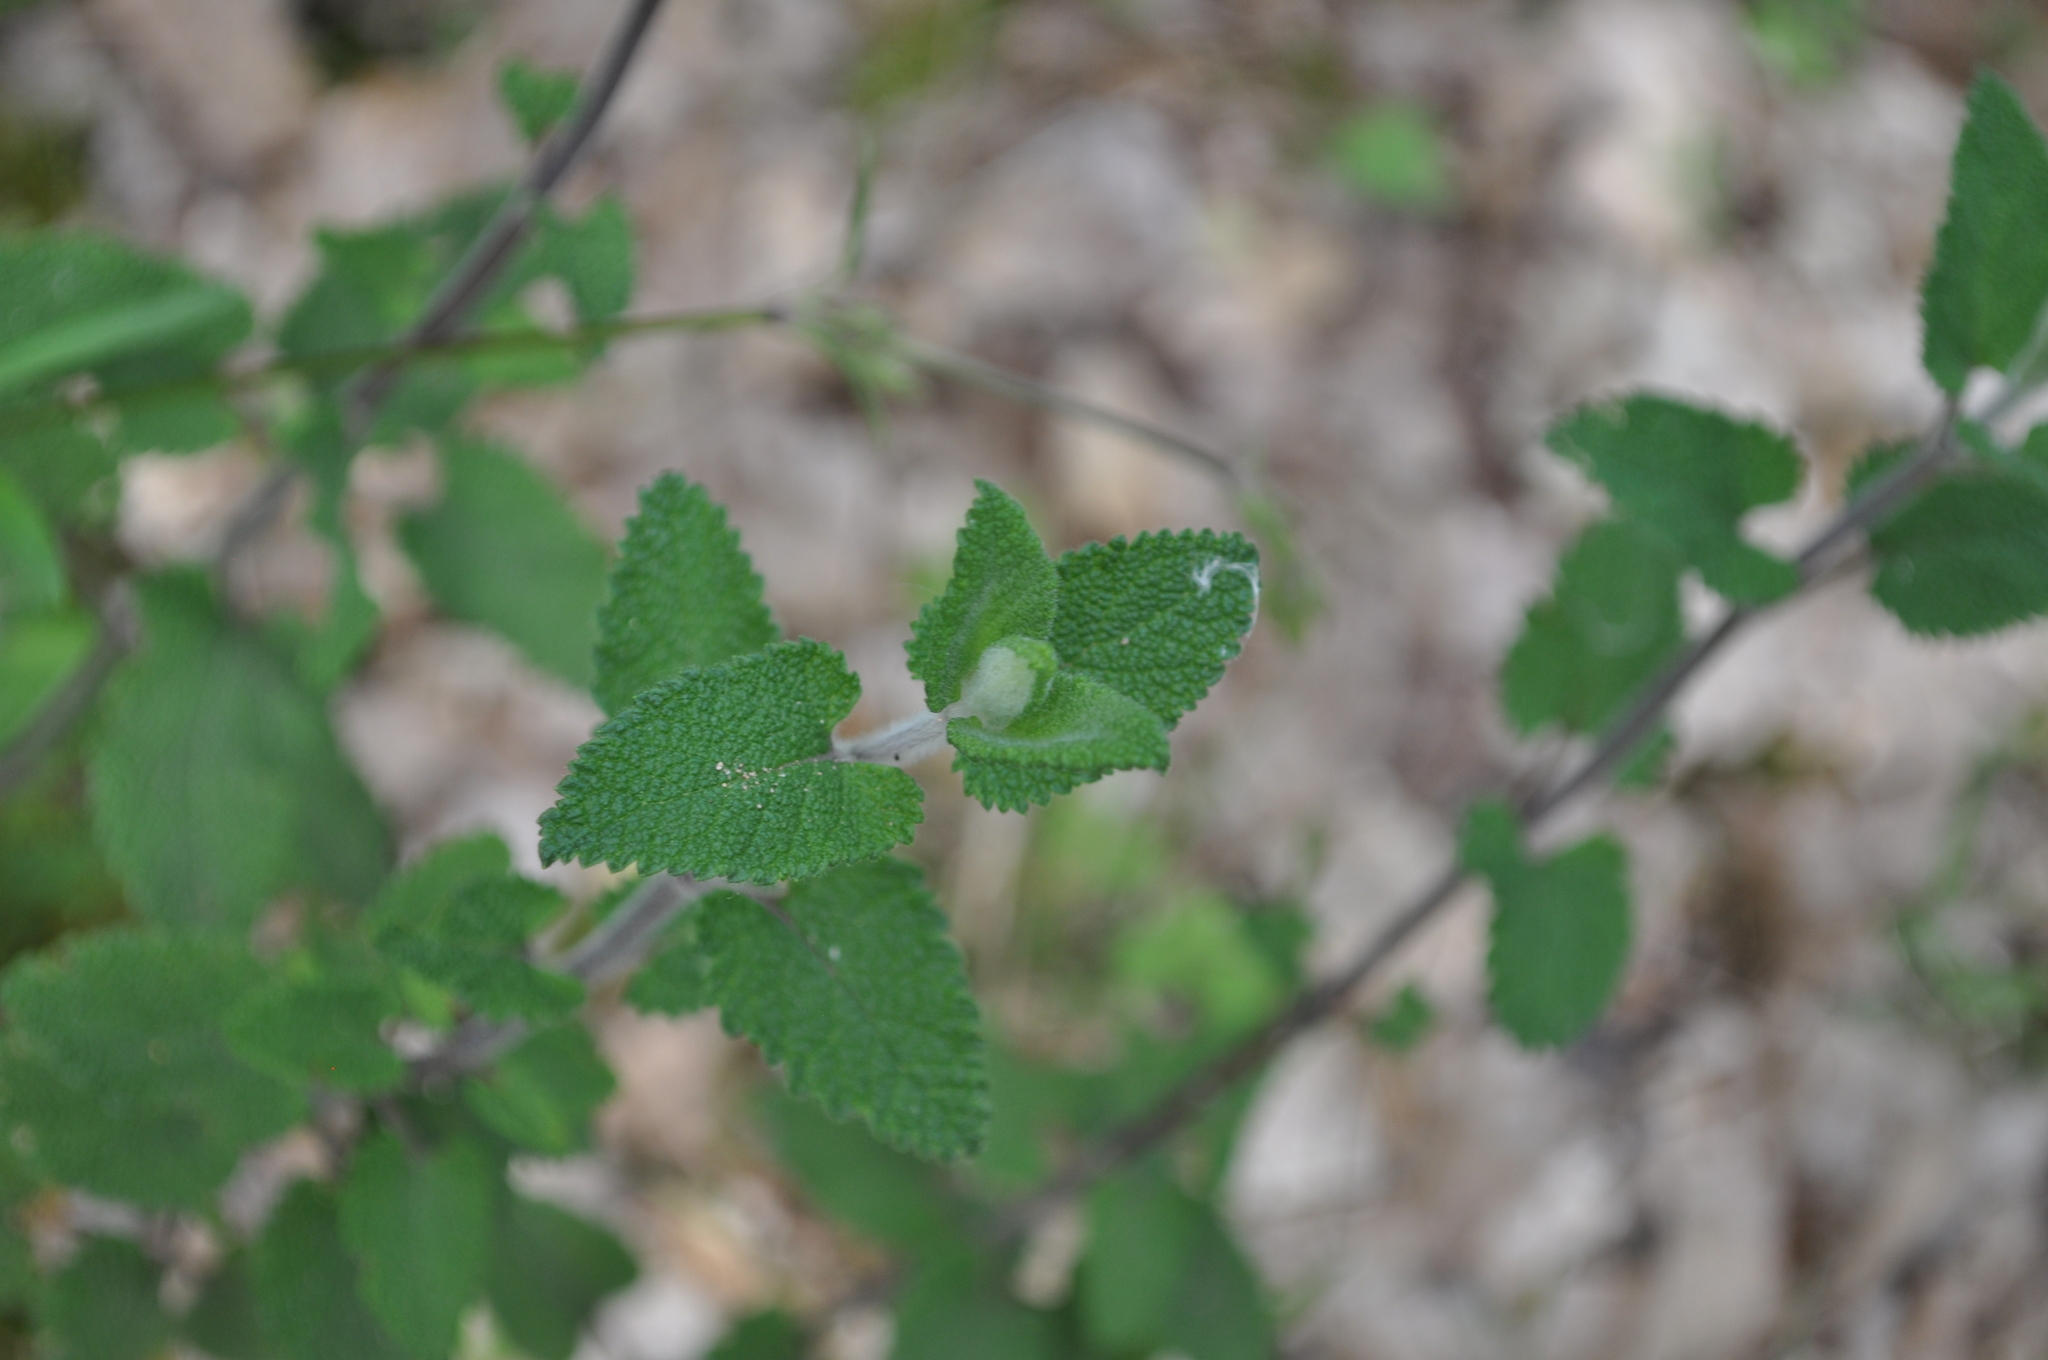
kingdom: Plantae
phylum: Tracheophyta
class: Magnoliopsida
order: Lamiales
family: Lamiaceae
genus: Teucrium
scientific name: Teucrium scorodonia
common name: Woodland germander
